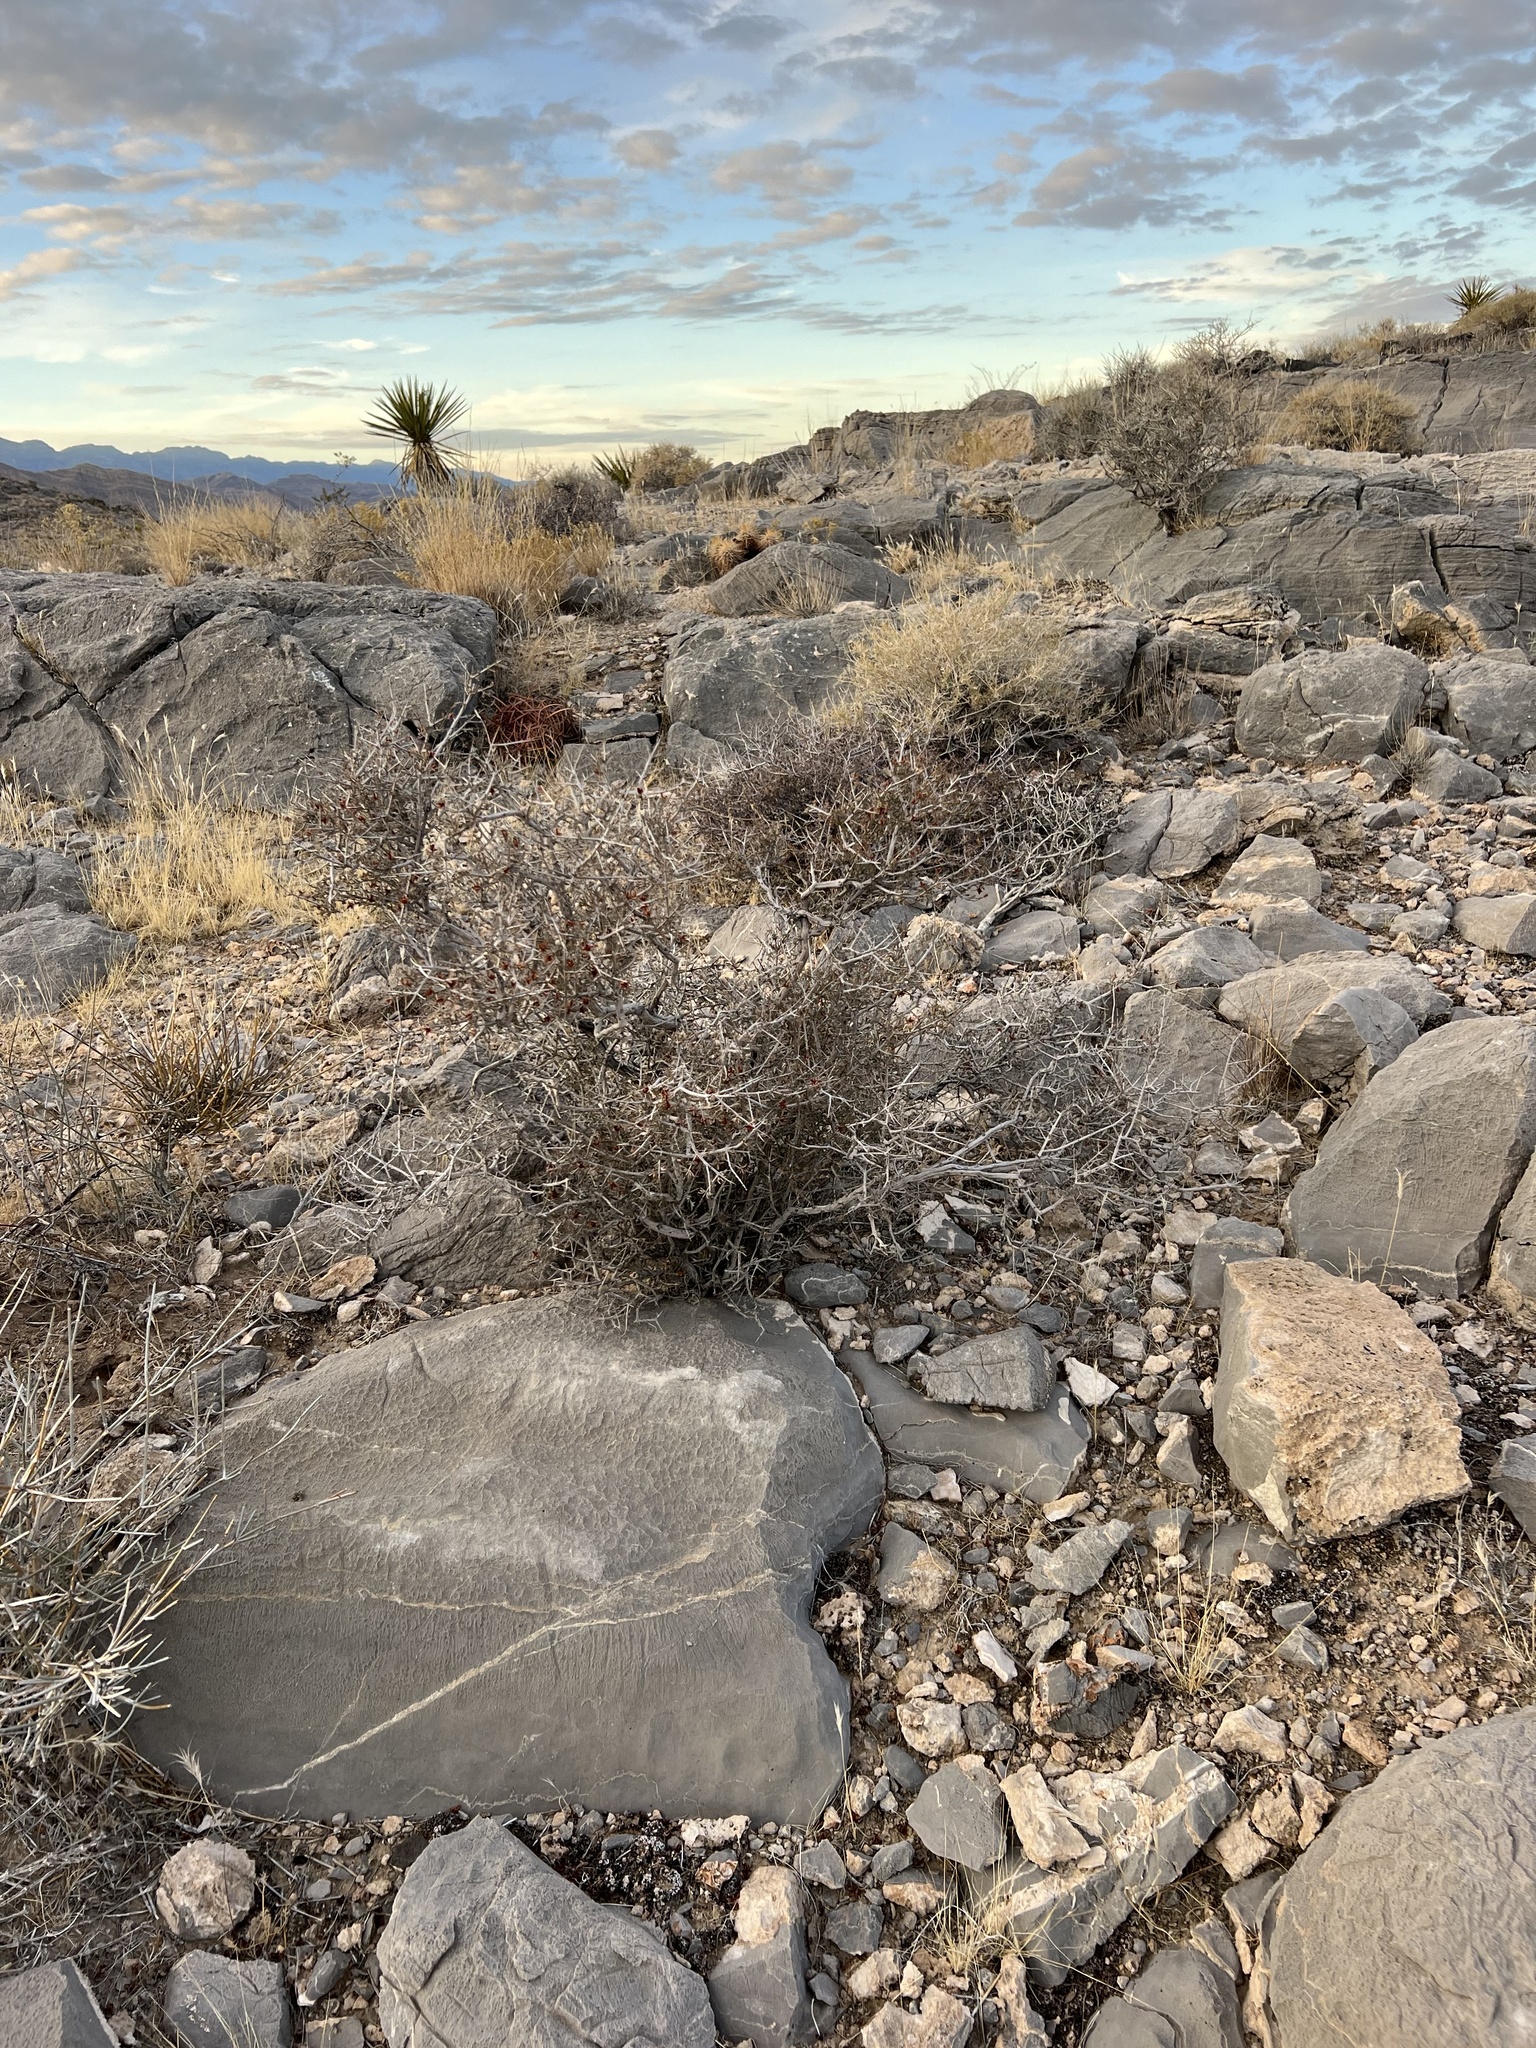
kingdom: Plantae
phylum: Tracheophyta
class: Magnoliopsida
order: Rosales
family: Rosaceae
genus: Coleogyne
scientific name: Coleogyne ramosissima
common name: Blackbrush
